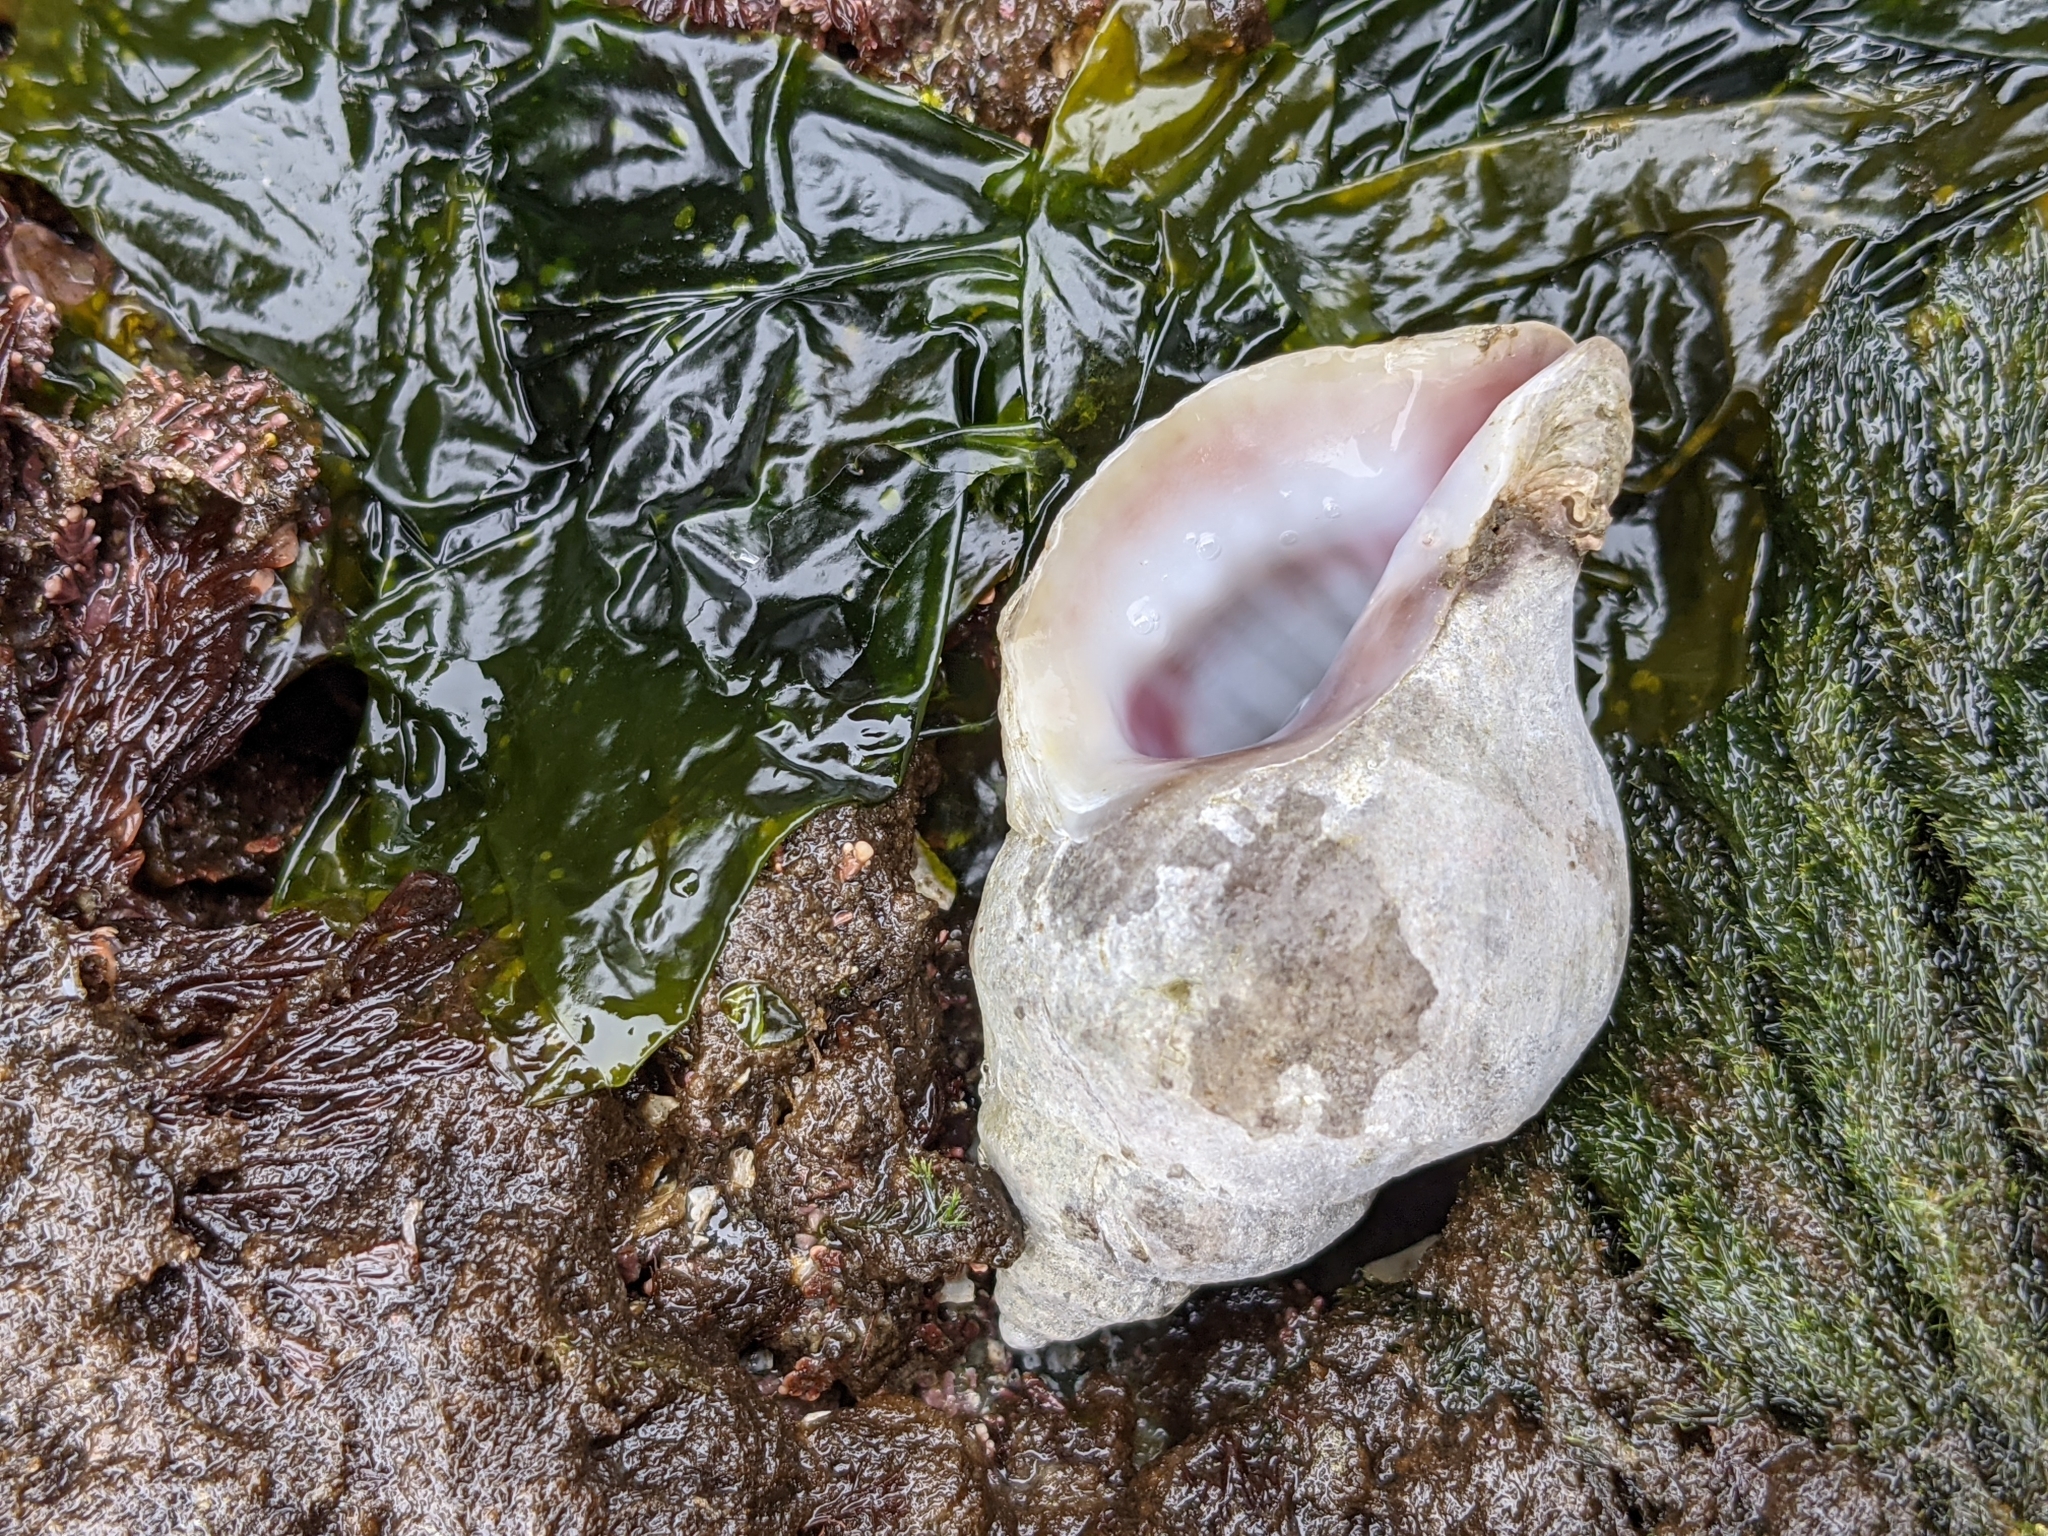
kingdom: Animalia
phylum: Mollusca
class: Gastropoda
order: Neogastropoda
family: Muricidae
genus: Nucella
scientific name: Nucella lamellosa
